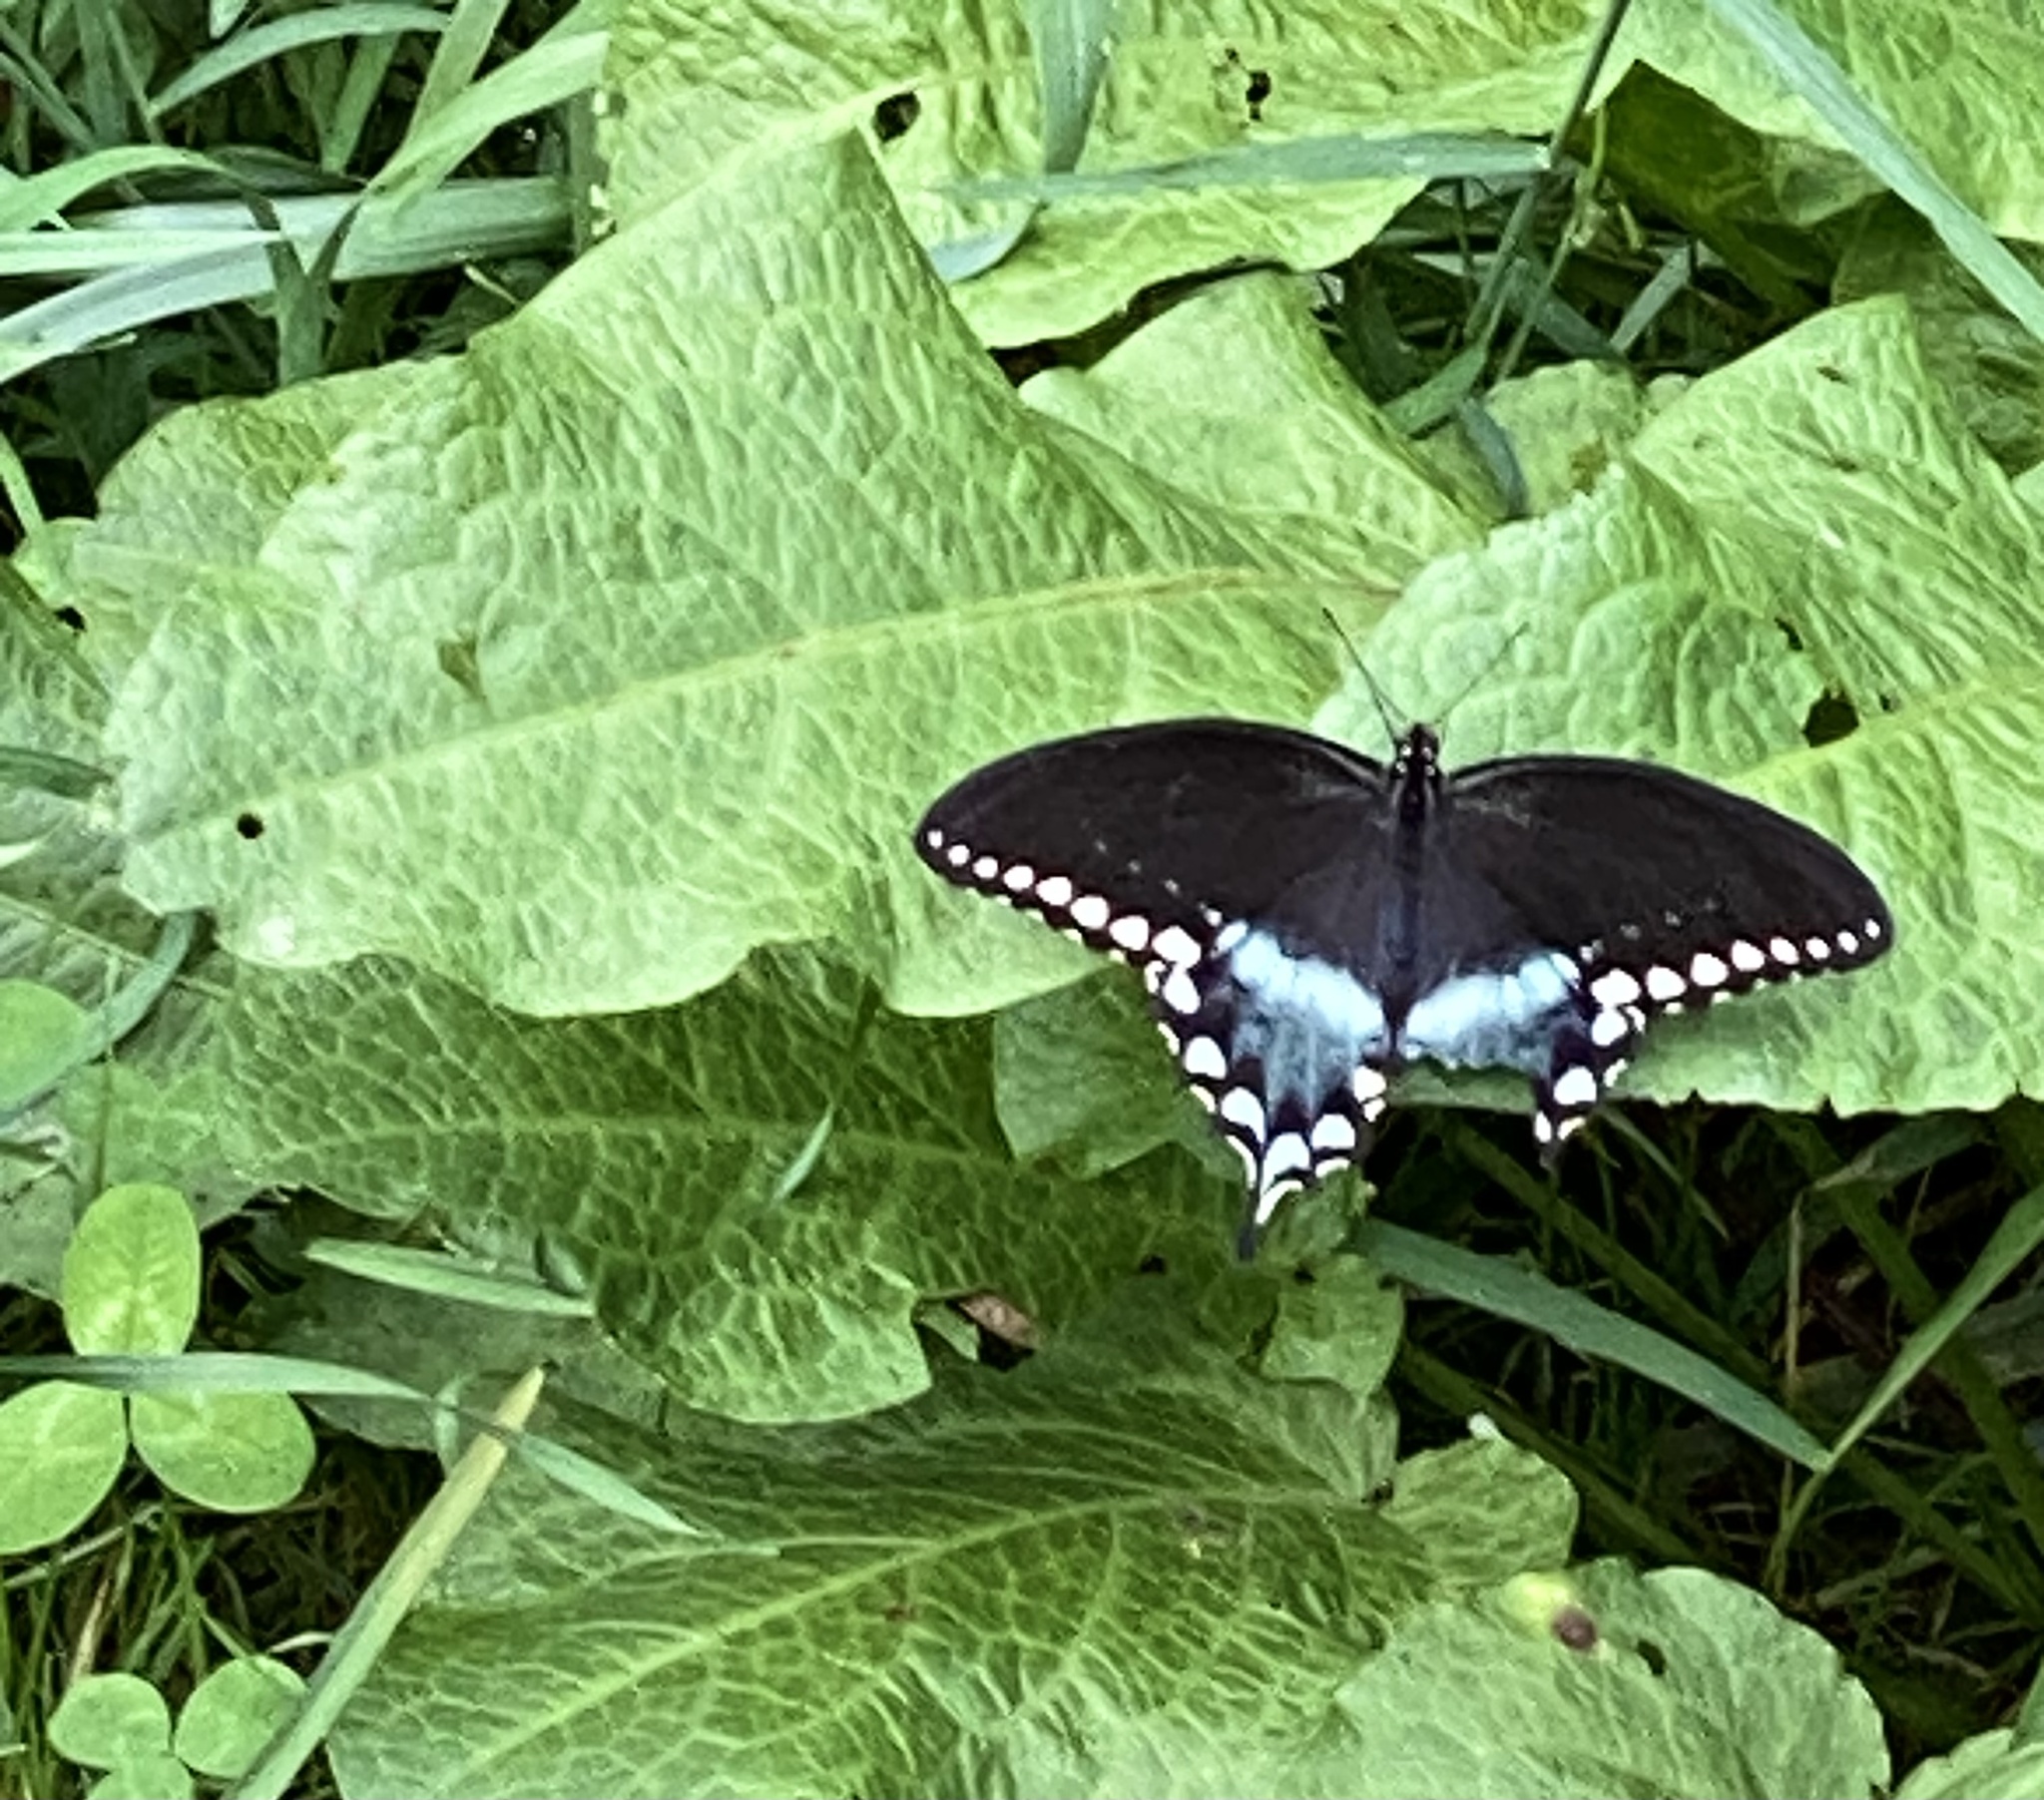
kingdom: Animalia
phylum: Arthropoda
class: Insecta
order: Lepidoptera
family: Papilionidae
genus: Papilio
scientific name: Papilio troilus
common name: Spicebush swallowtail
